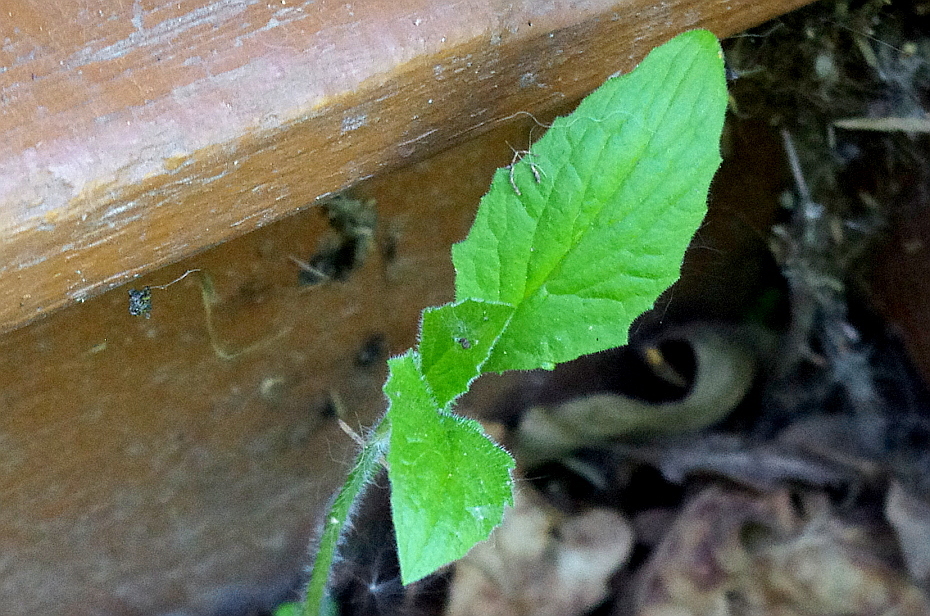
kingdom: Plantae
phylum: Tracheophyta
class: Magnoliopsida
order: Asterales
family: Asteraceae
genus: Lapsana
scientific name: Lapsana communis
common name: Nipplewort
